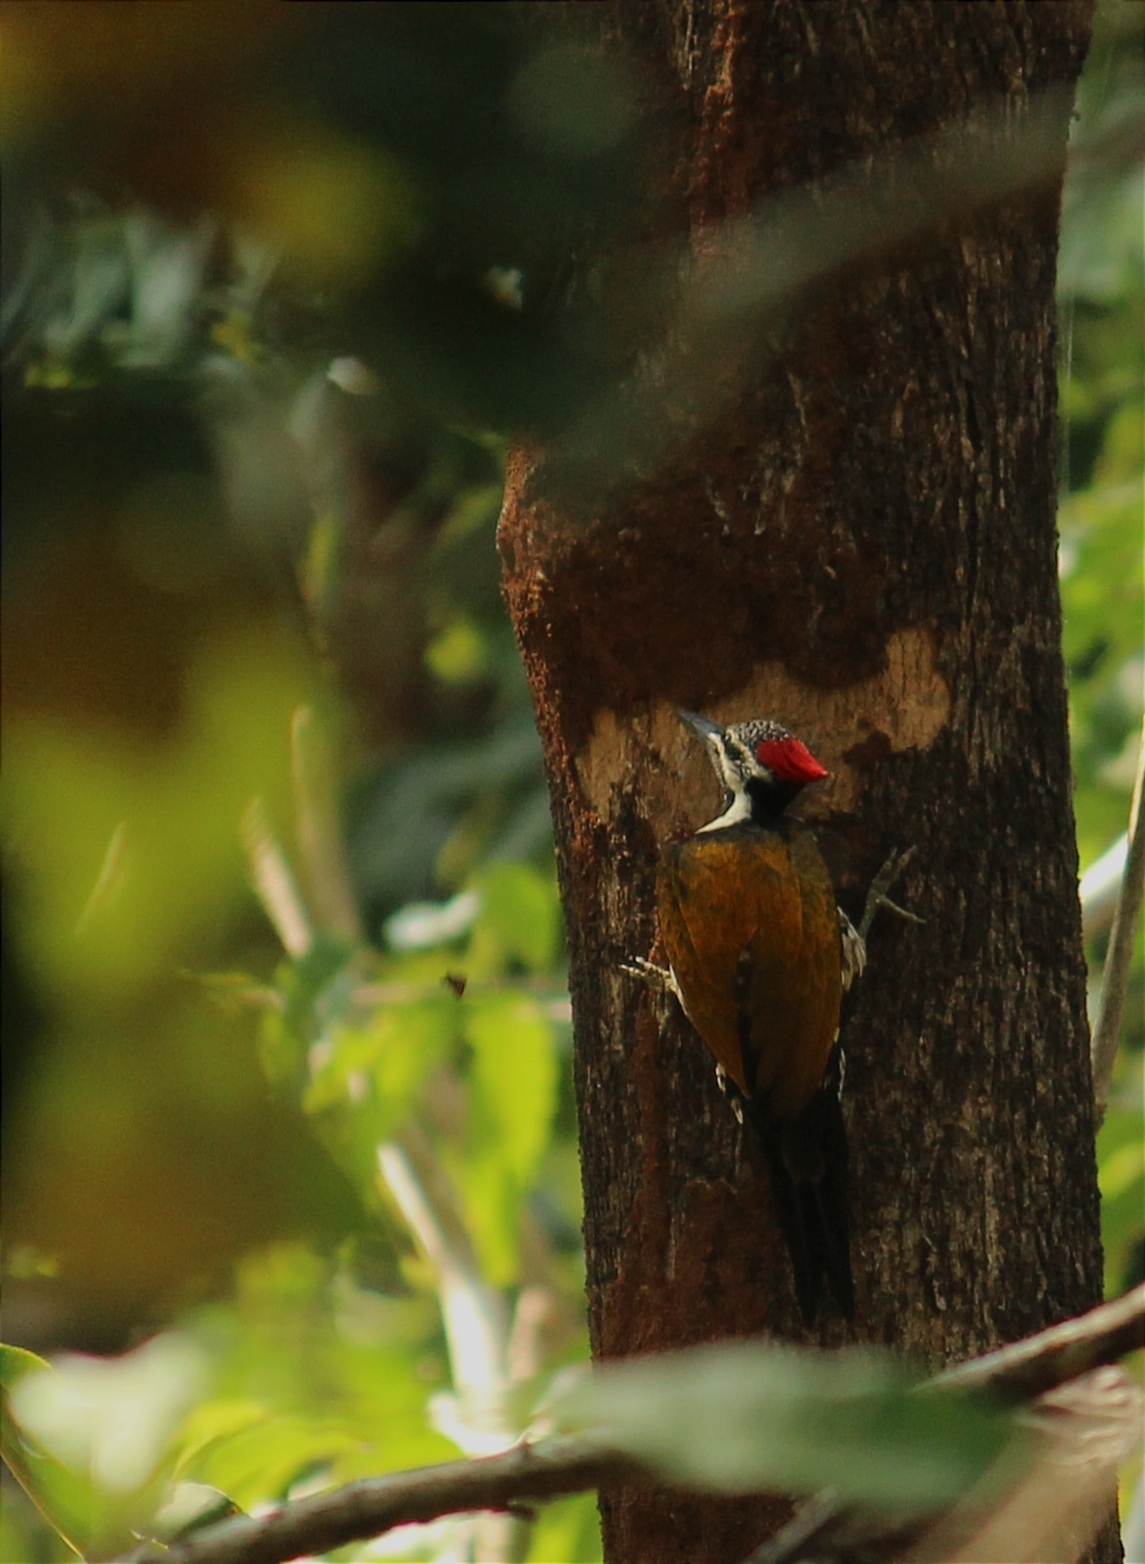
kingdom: Animalia
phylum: Chordata
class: Aves
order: Piciformes
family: Picidae
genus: Dinopium
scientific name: Dinopium benghalense
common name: Black-rumped flameback
